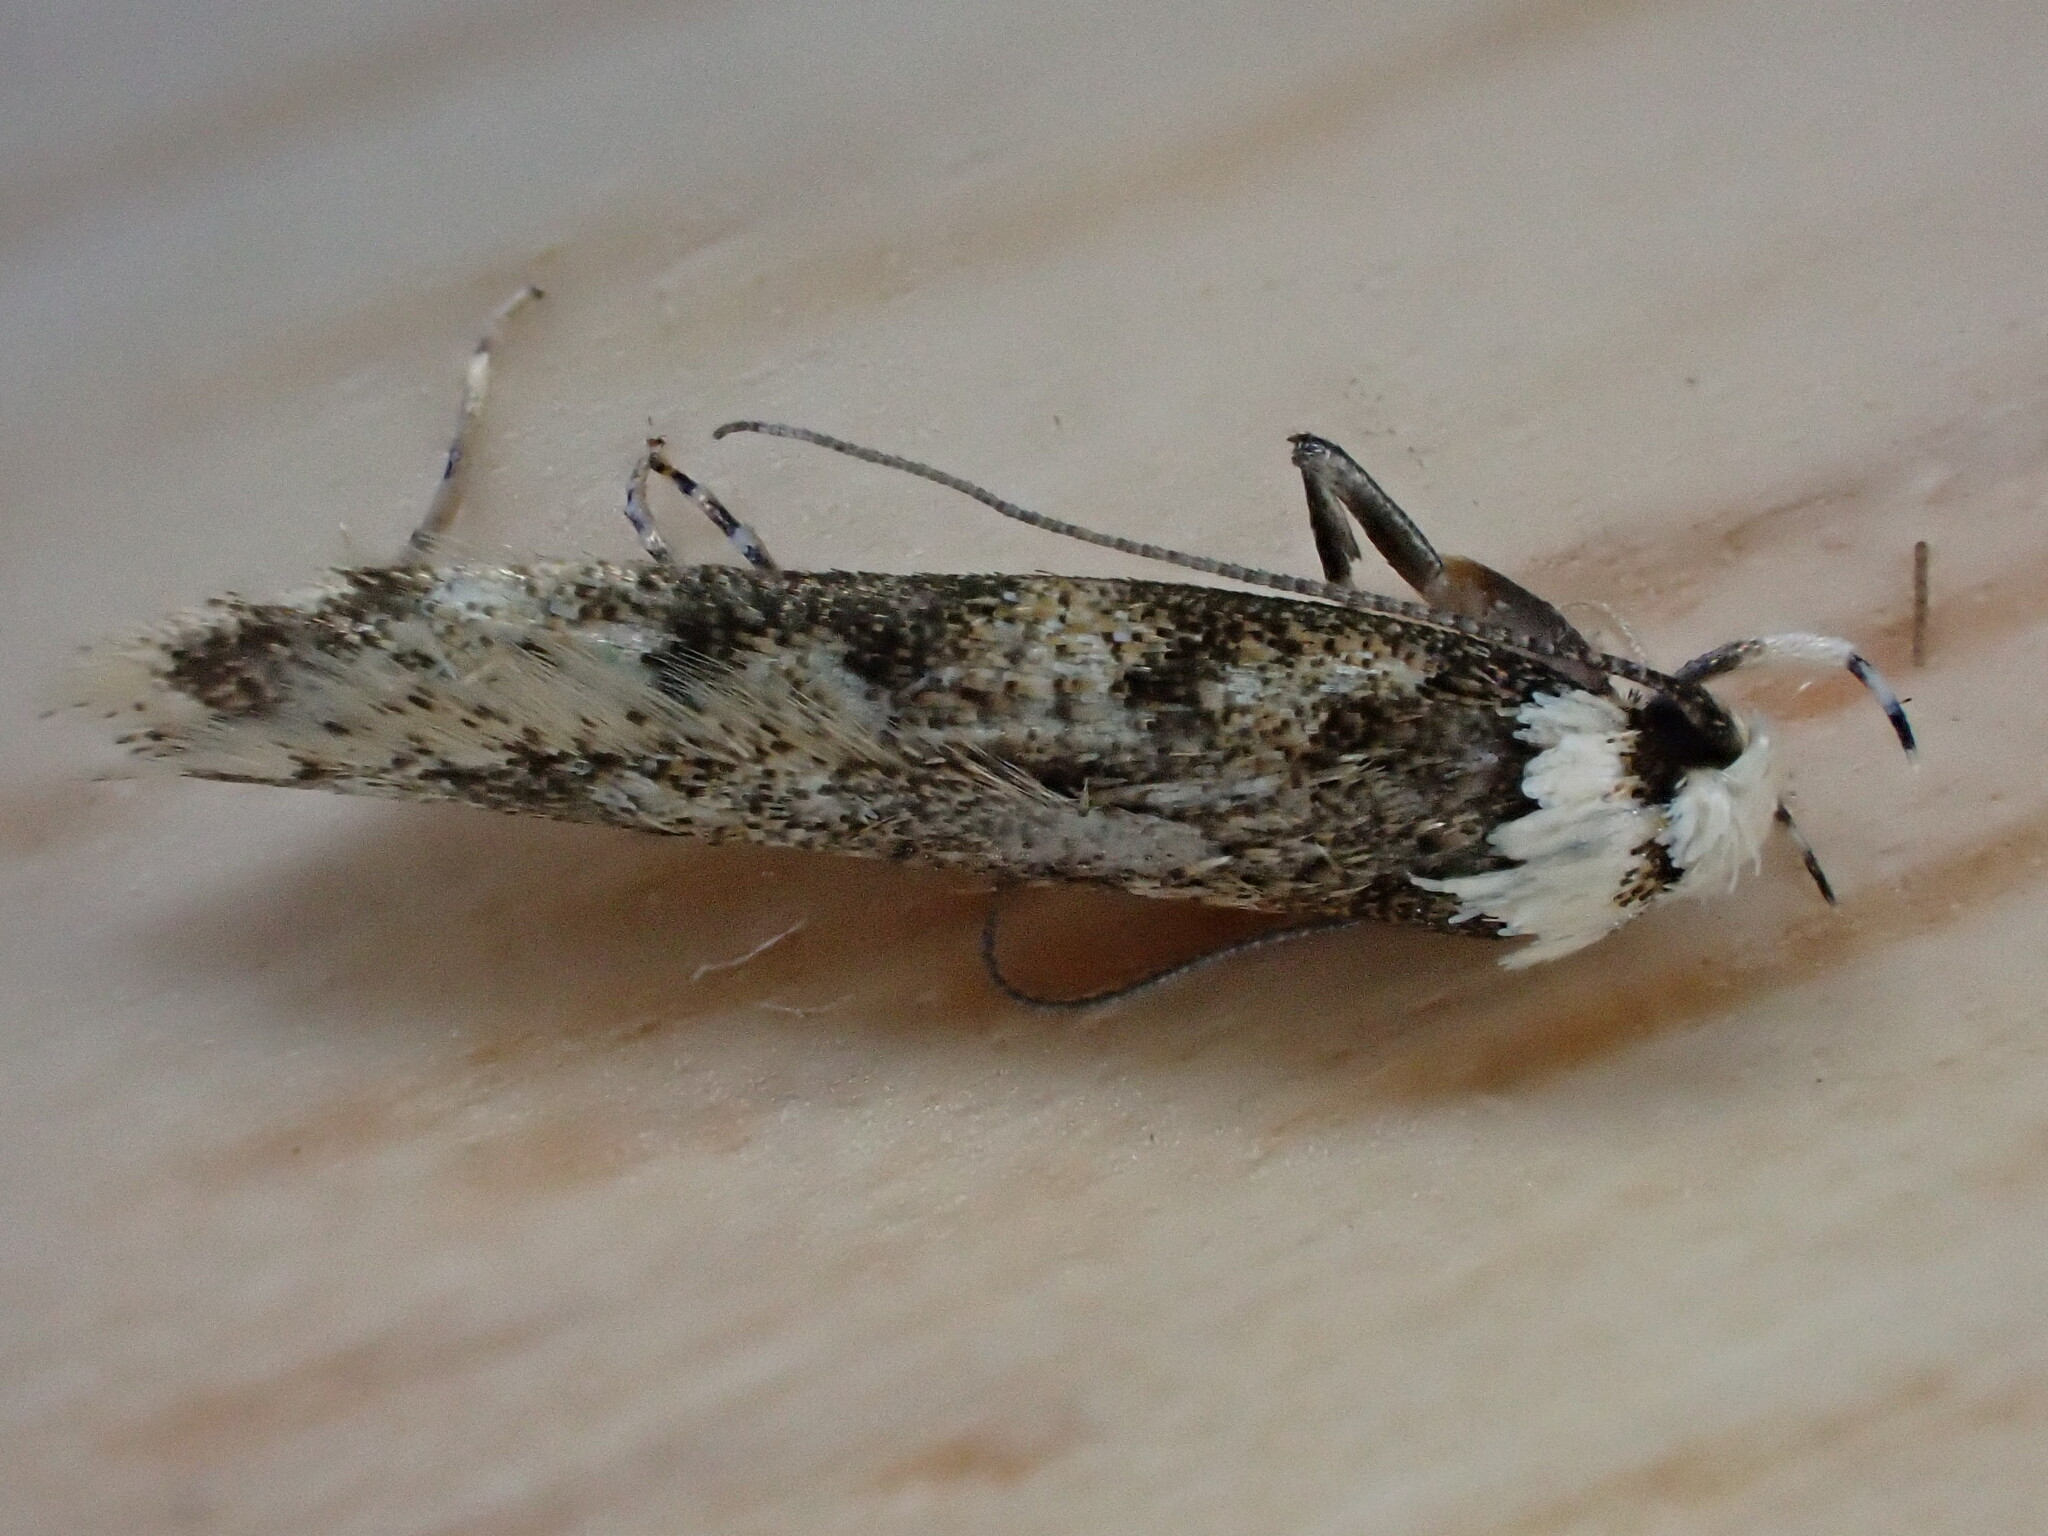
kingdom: Animalia
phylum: Arthropoda
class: Insecta
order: Lepidoptera
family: Oecophoridae
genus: Endrosis
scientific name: Endrosis sarcitrella
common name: White-shouldered house moth
